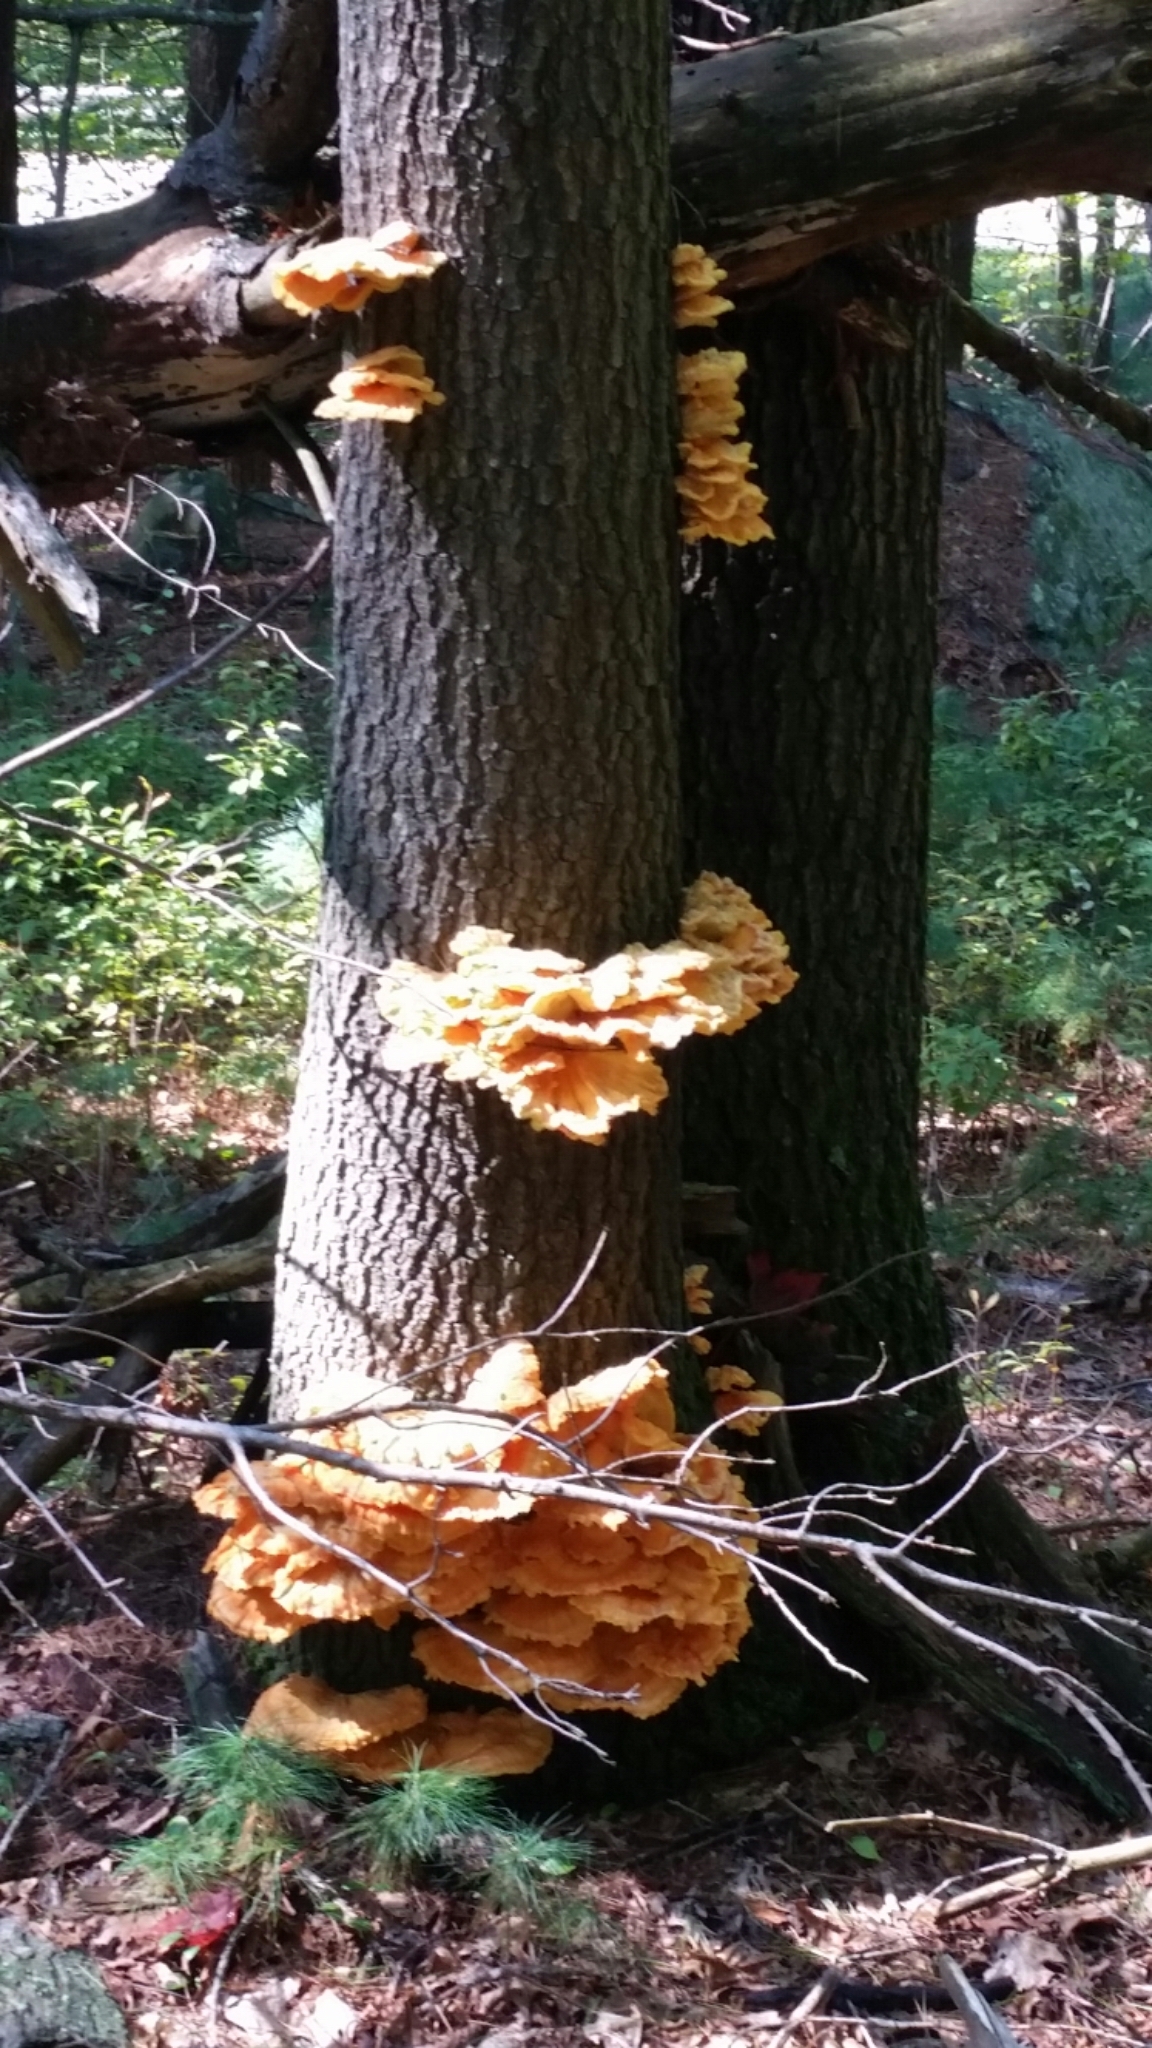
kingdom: Fungi
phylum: Basidiomycota
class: Agaricomycetes
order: Polyporales
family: Laetiporaceae
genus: Laetiporus
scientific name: Laetiporus sulphureus
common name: Chicken of the woods
